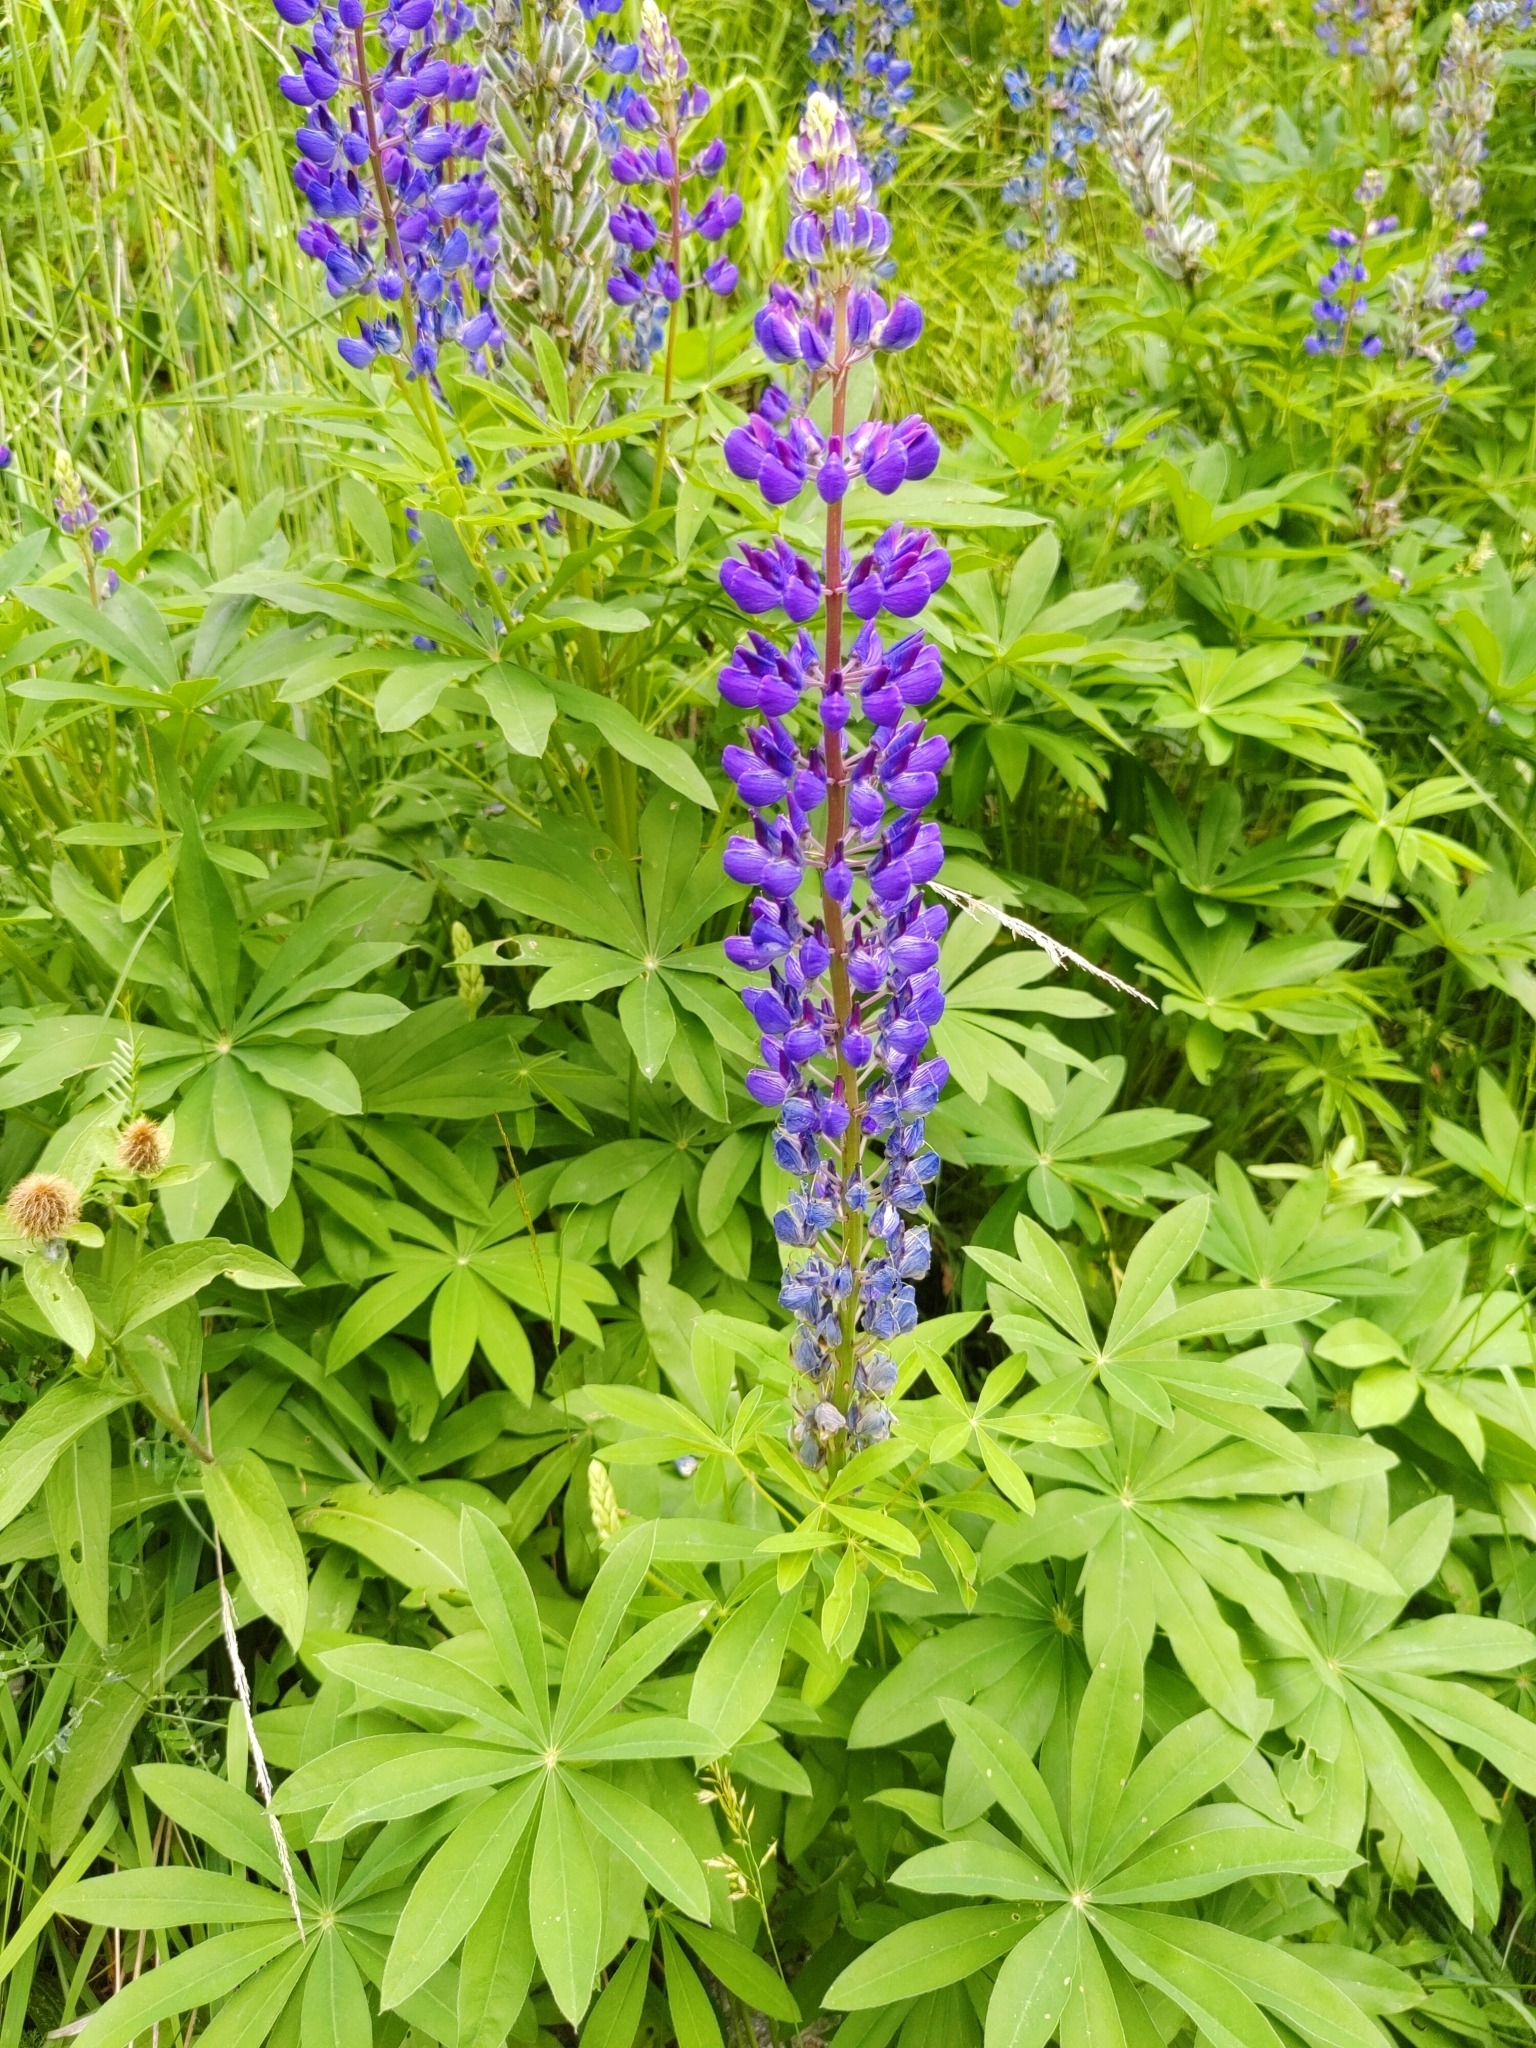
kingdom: Plantae
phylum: Tracheophyta
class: Magnoliopsida
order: Fabales
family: Fabaceae
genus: Lupinus
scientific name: Lupinus polyphyllus
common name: Garden lupin
